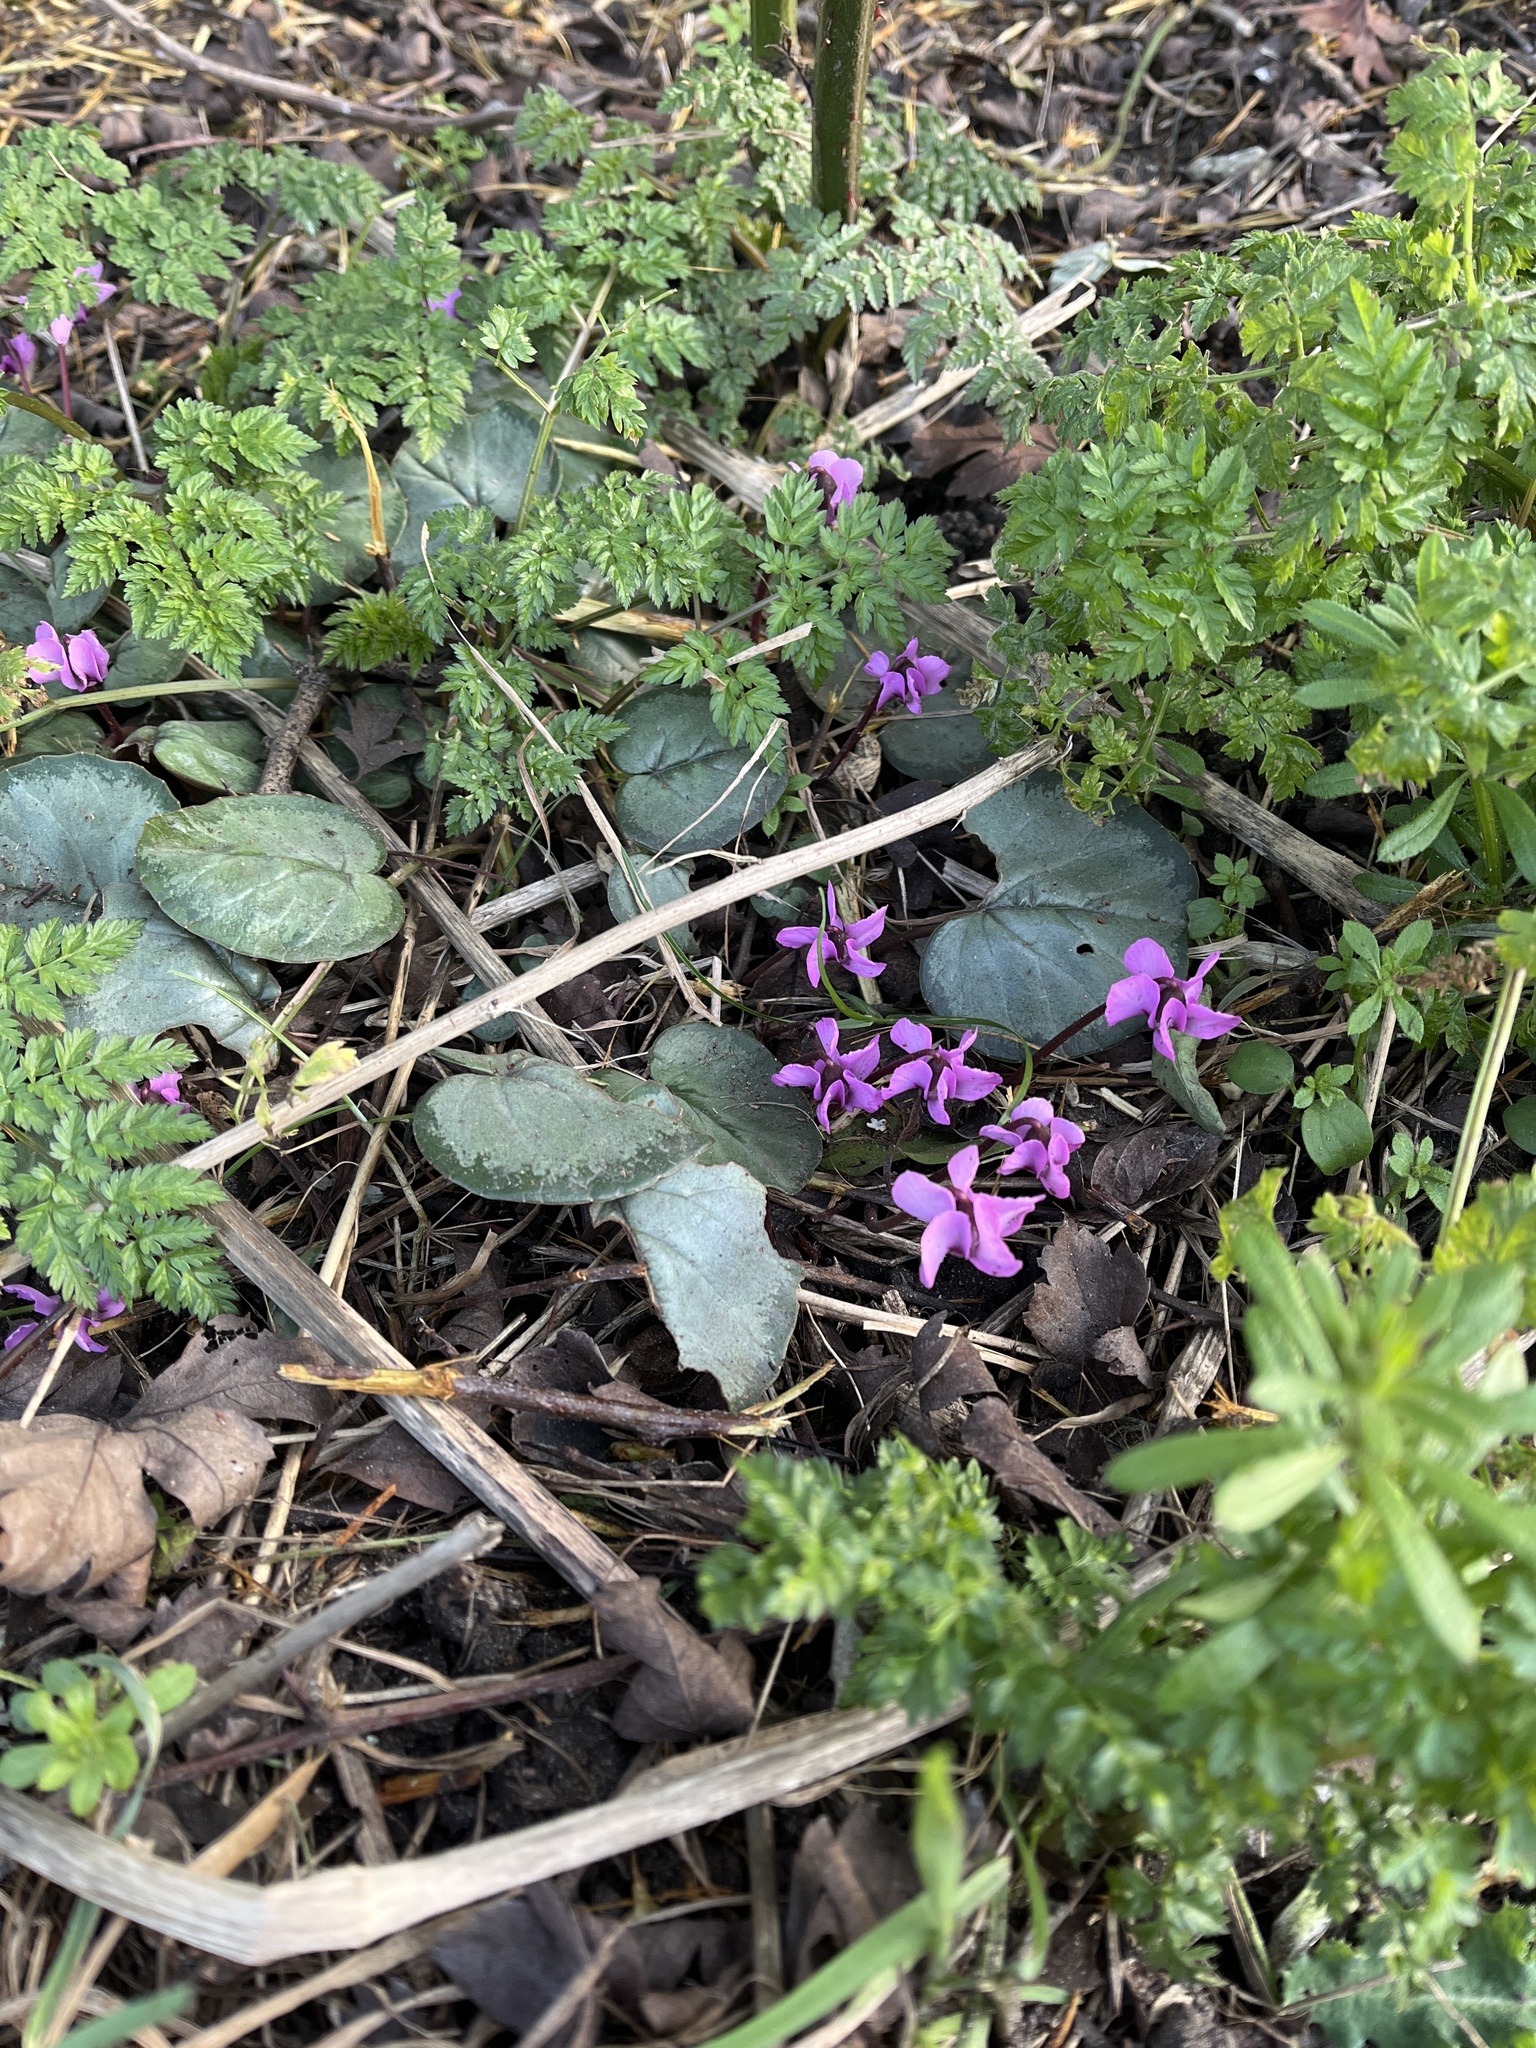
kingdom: Plantae
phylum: Tracheophyta
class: Magnoliopsida
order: Ericales
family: Primulaceae
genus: Cyclamen
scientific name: Cyclamen coum
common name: Eastern sowbread
